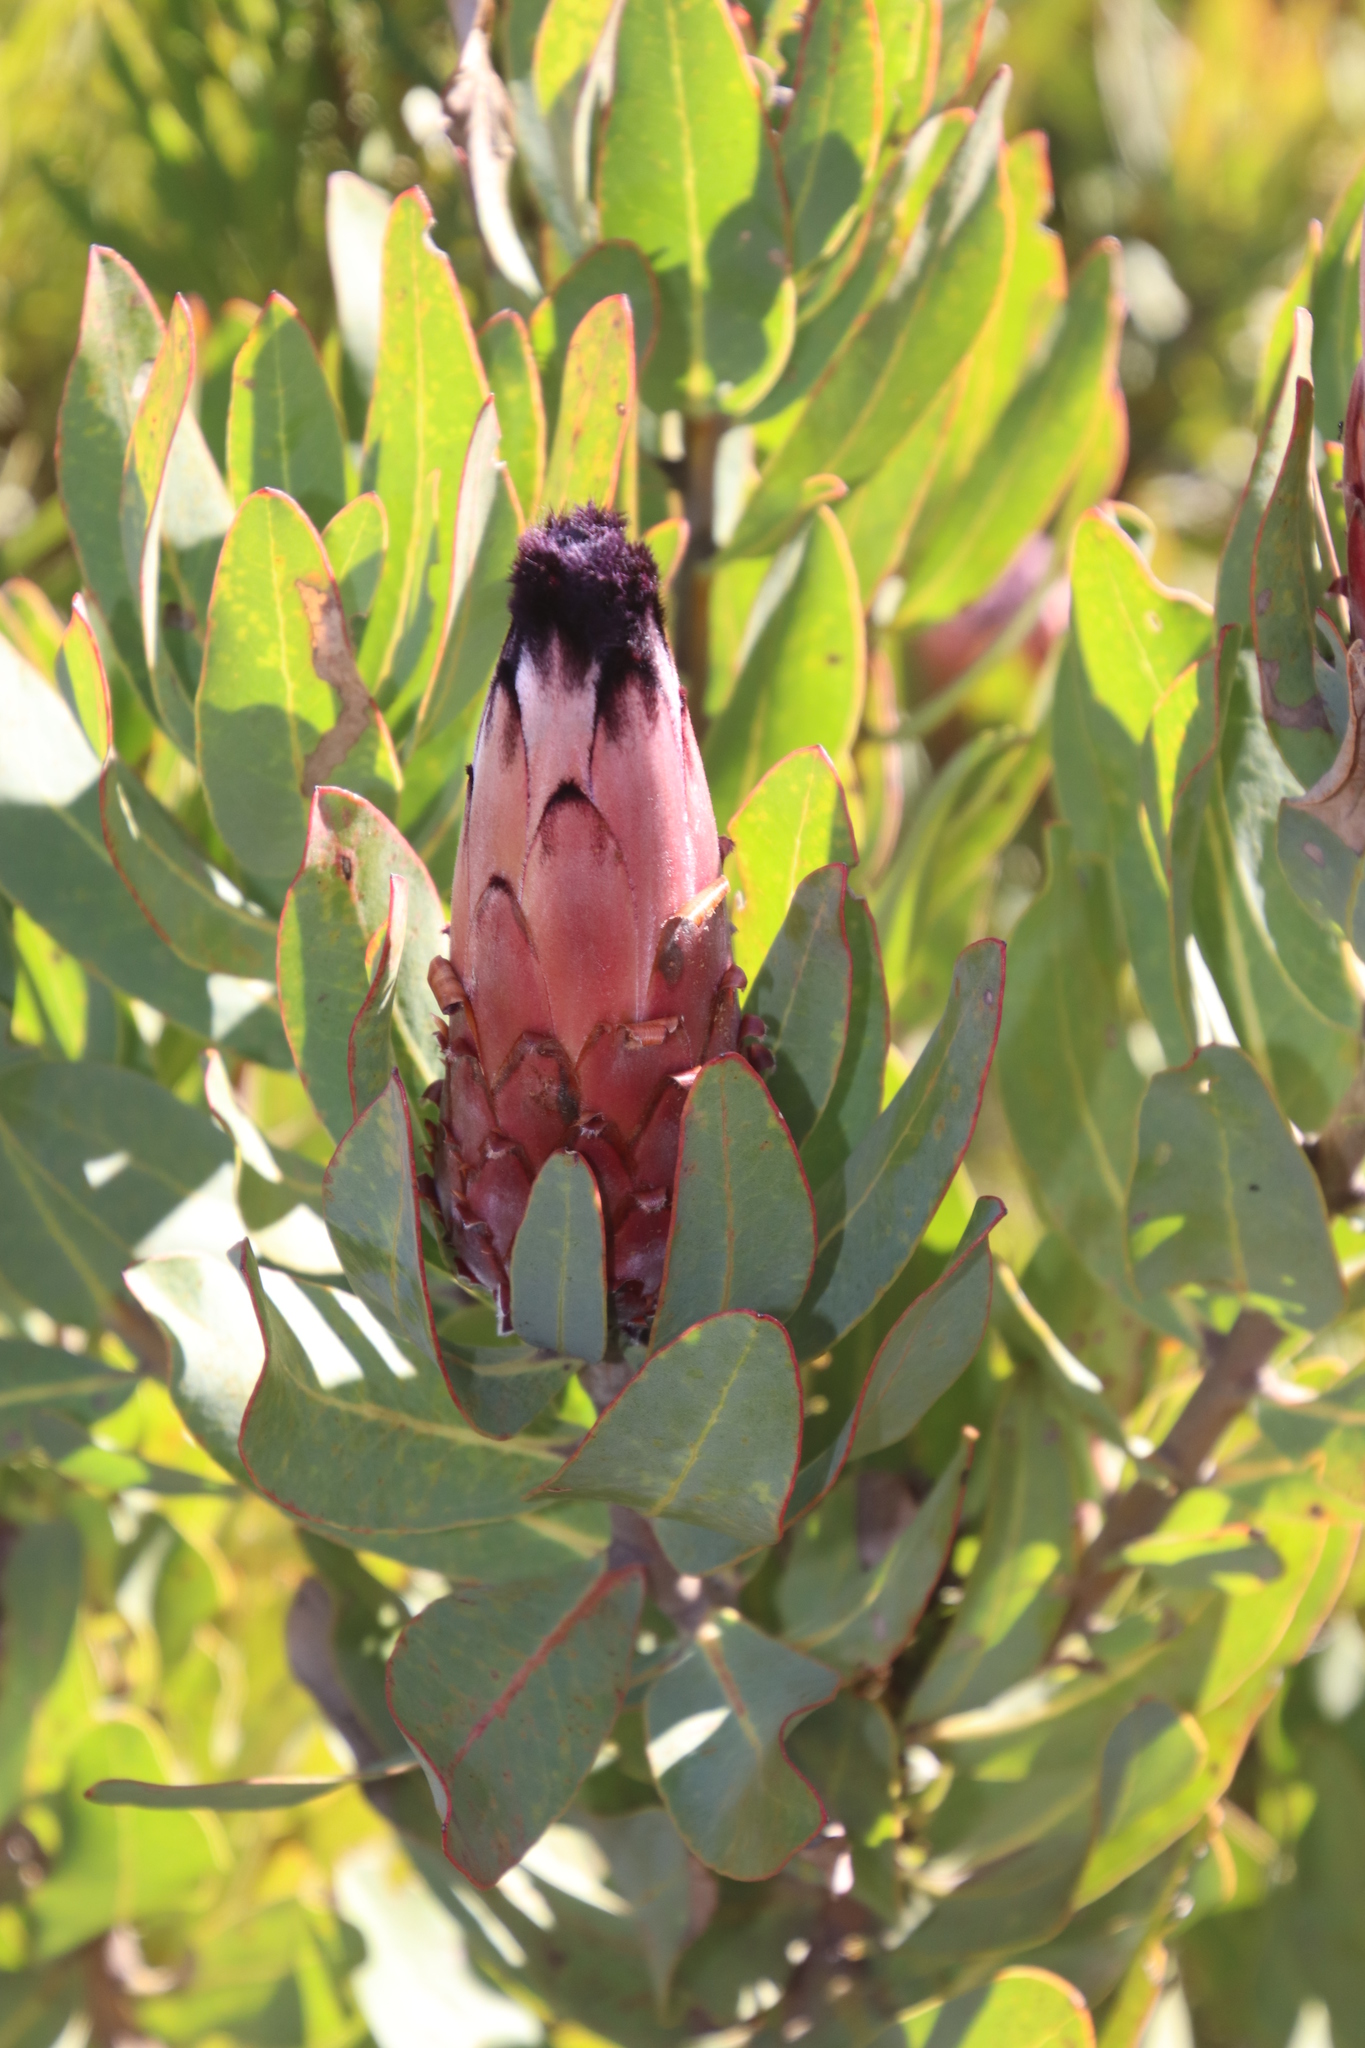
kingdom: Plantae
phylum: Tracheophyta
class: Magnoliopsida
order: Proteales
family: Proteaceae
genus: Protea
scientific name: Protea laurifolia
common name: Grey-leaf sugarbsh
